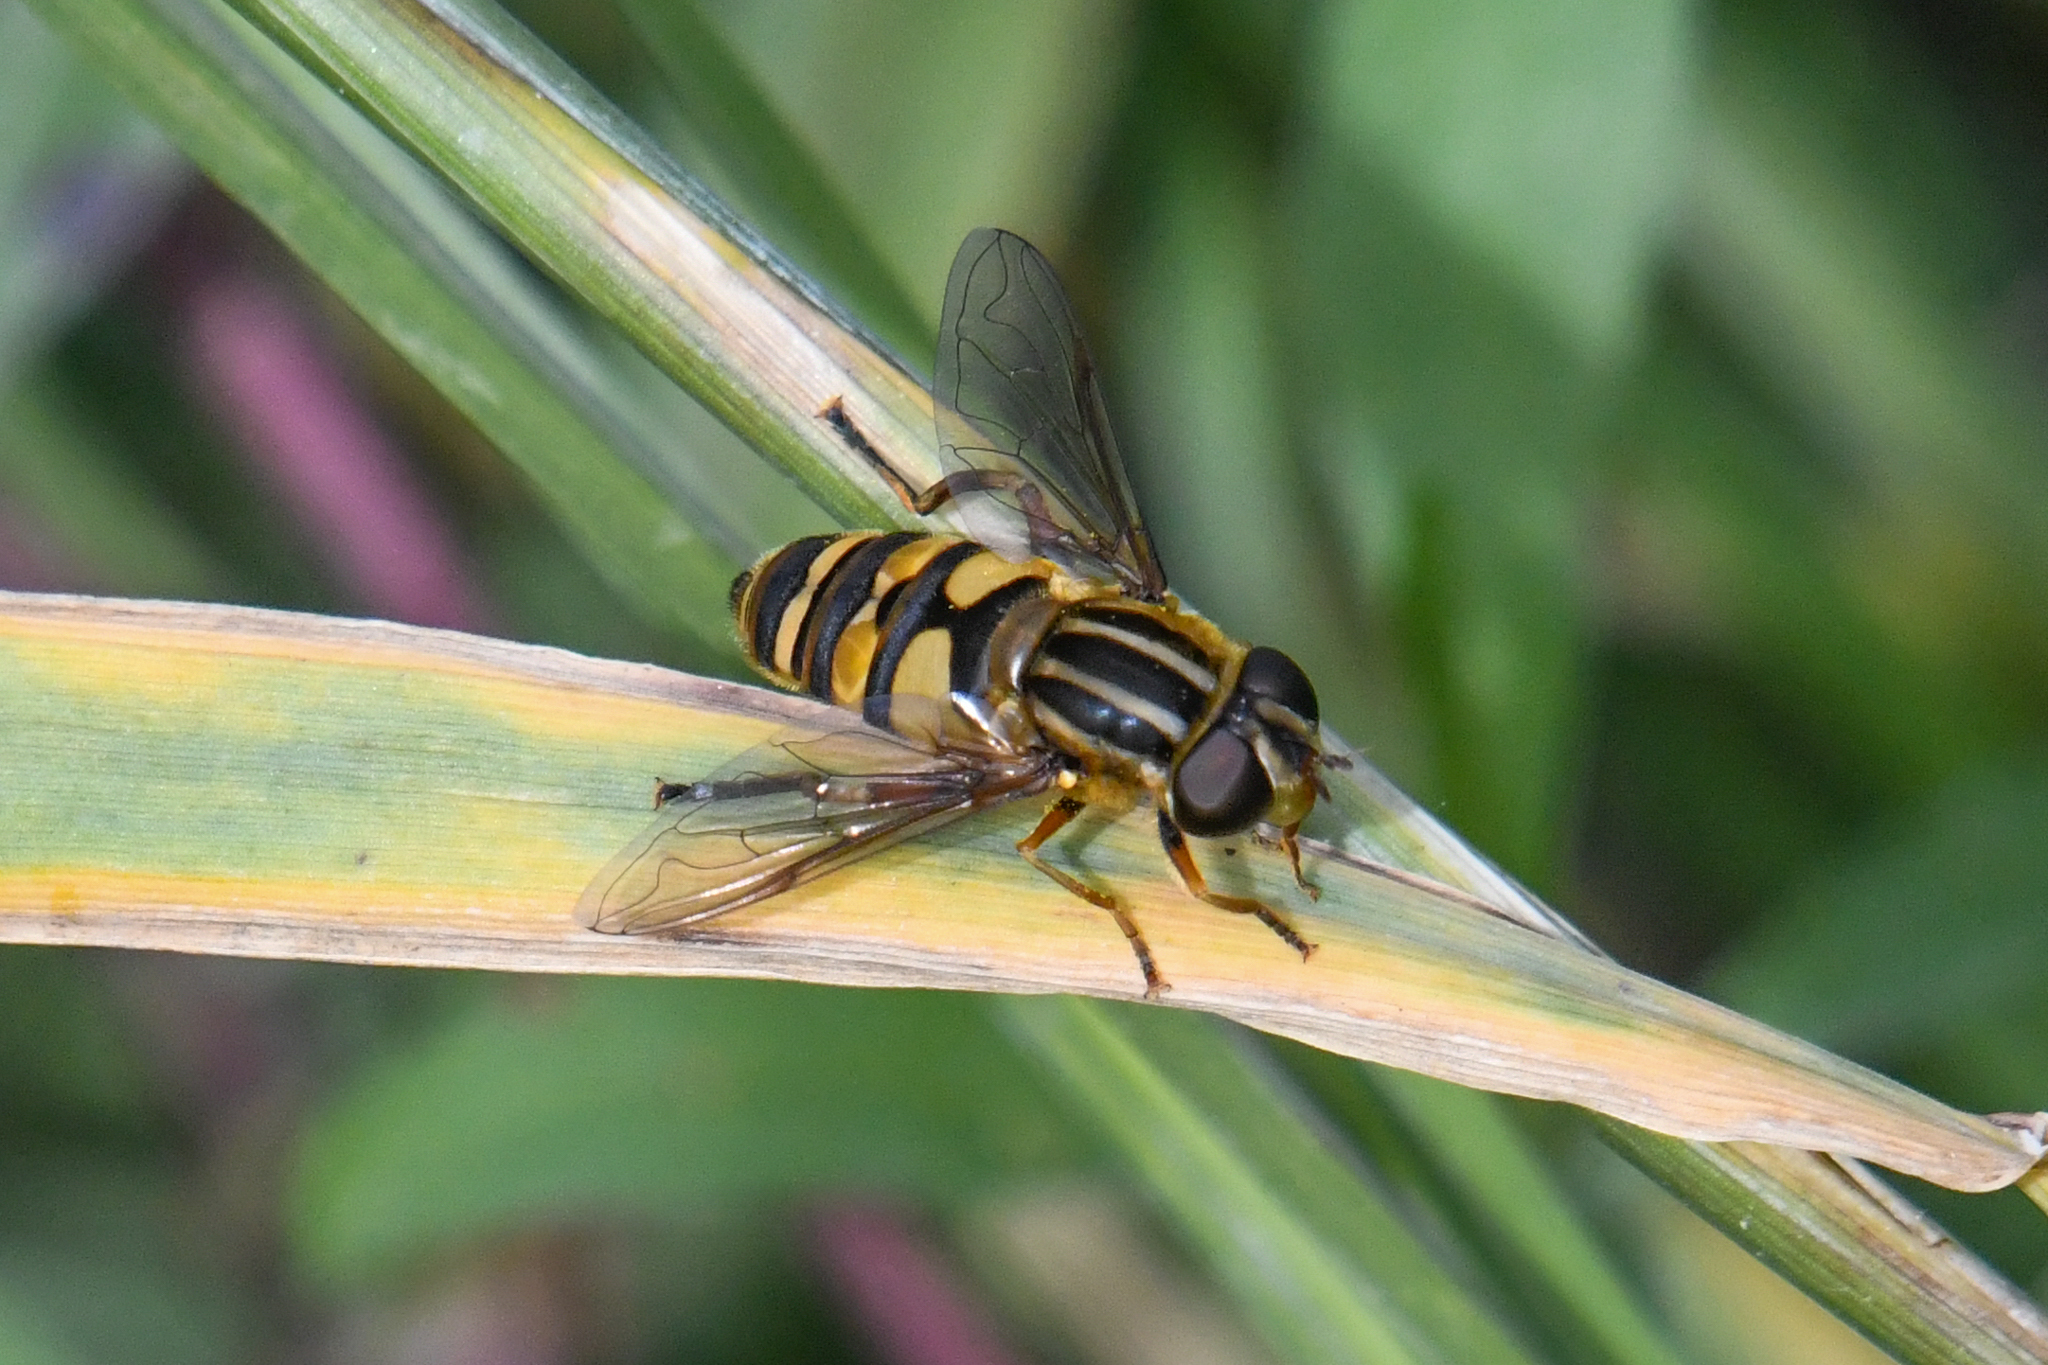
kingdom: Animalia
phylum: Arthropoda
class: Insecta
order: Diptera
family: Syrphidae
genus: Helophilus
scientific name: Helophilus fasciatus
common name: Narrow-headed marsh fly
